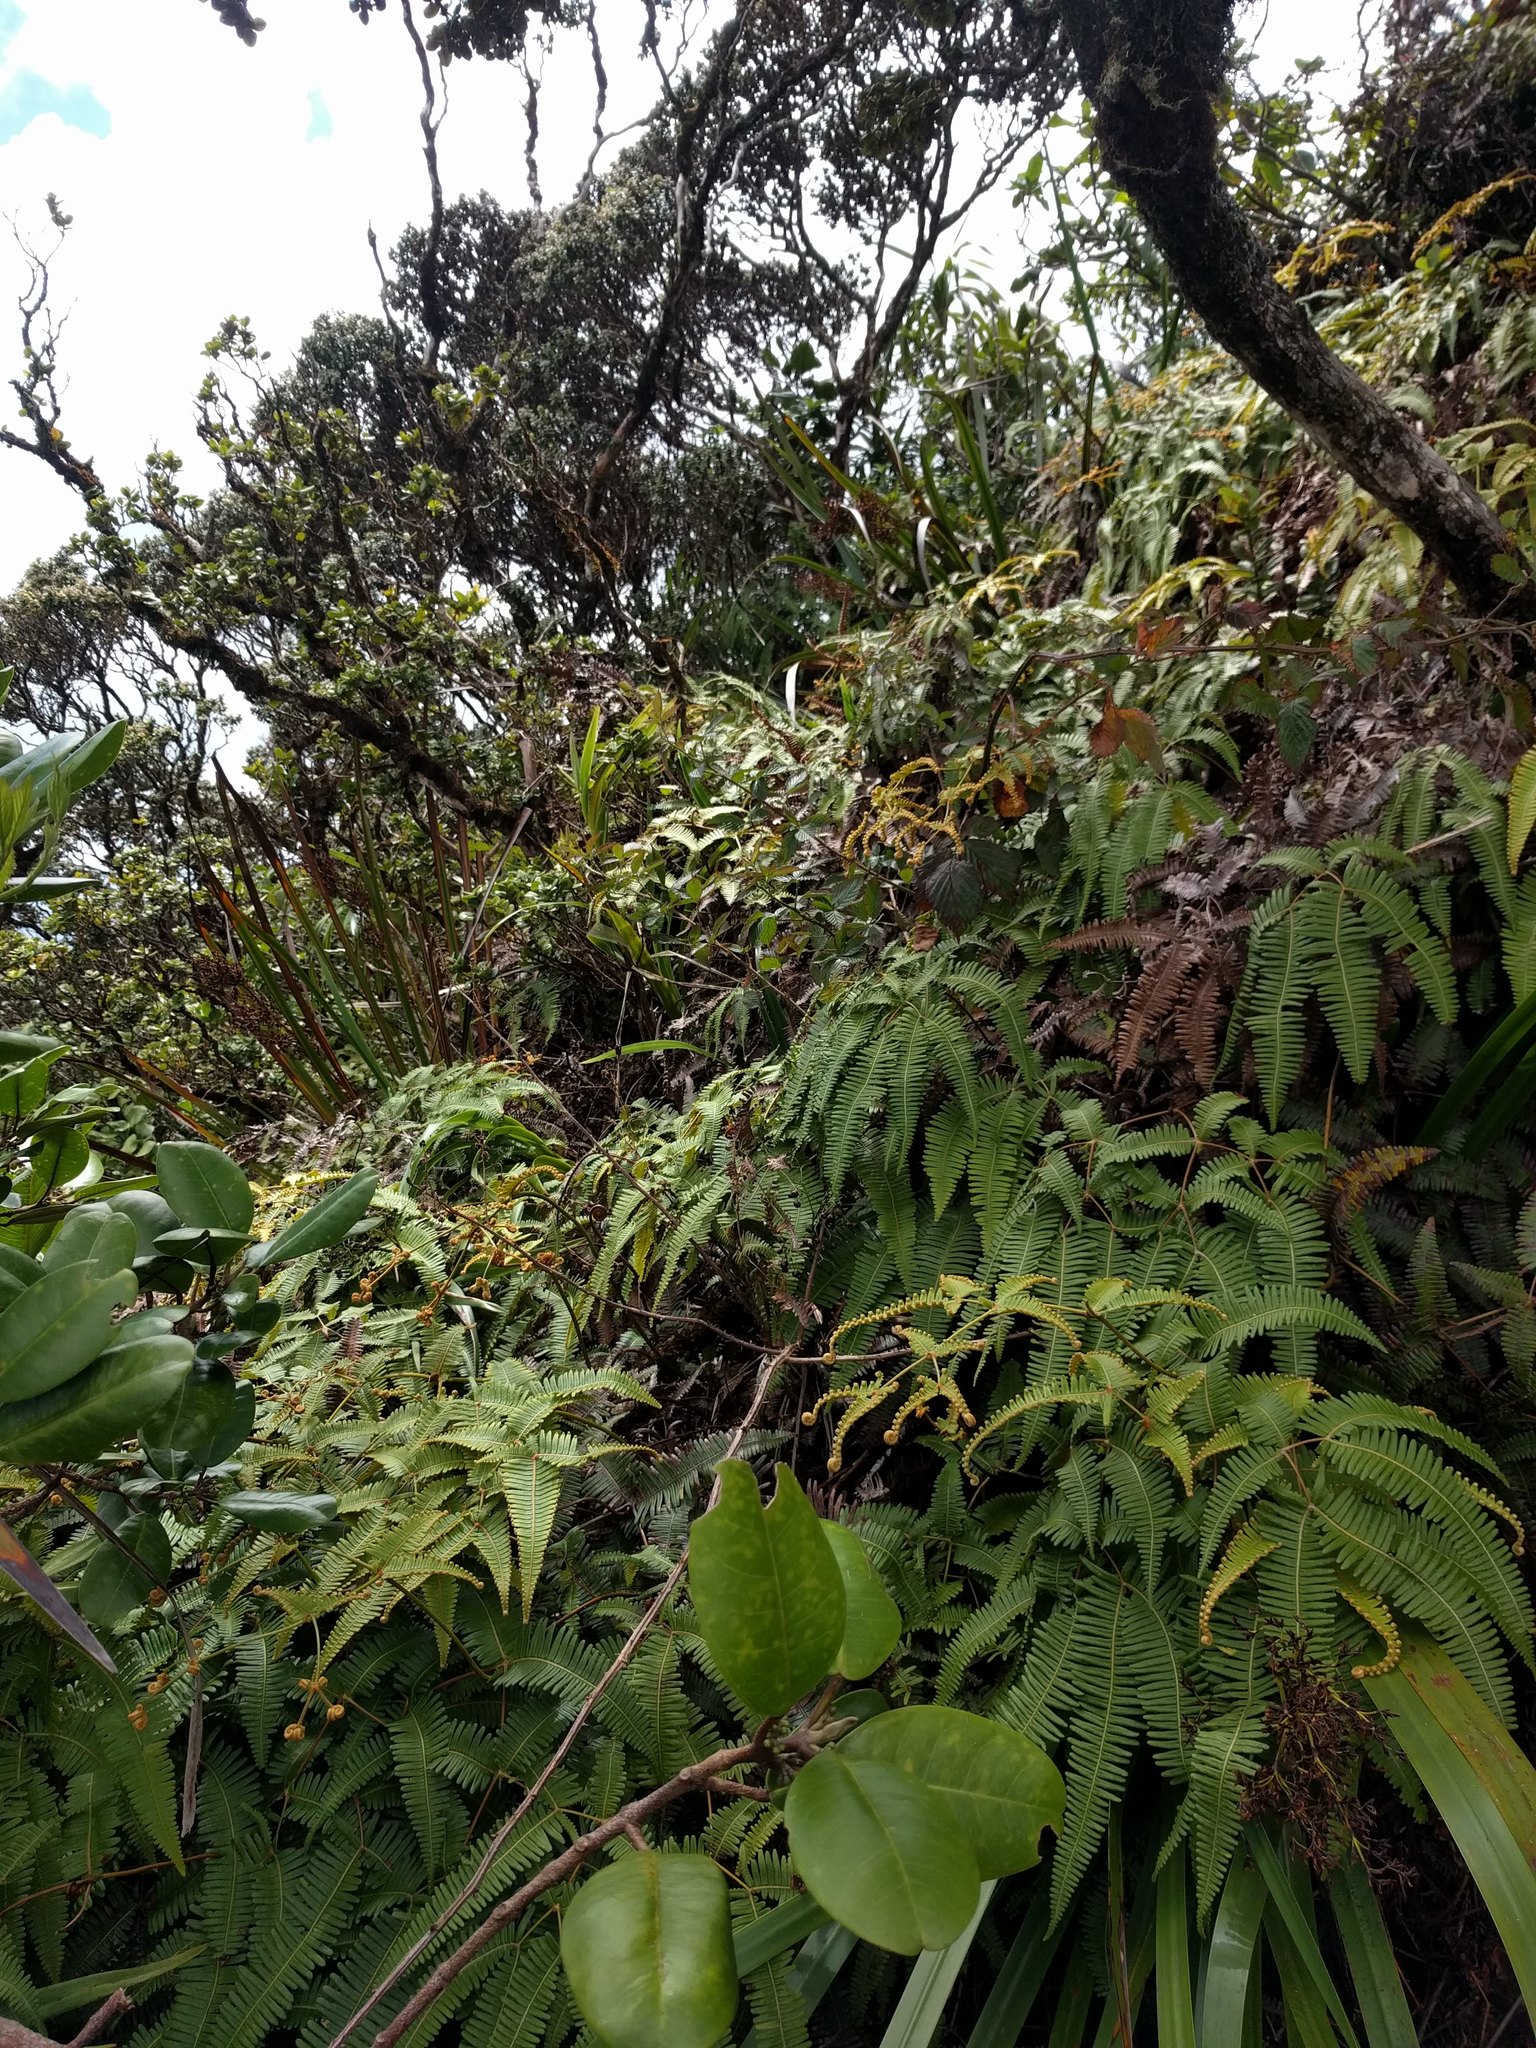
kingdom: Plantae
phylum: Tracheophyta
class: Polypodiopsida
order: Gleicheniales
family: Gleicheniaceae
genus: Dicranopteris
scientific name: Dicranopteris linearis
